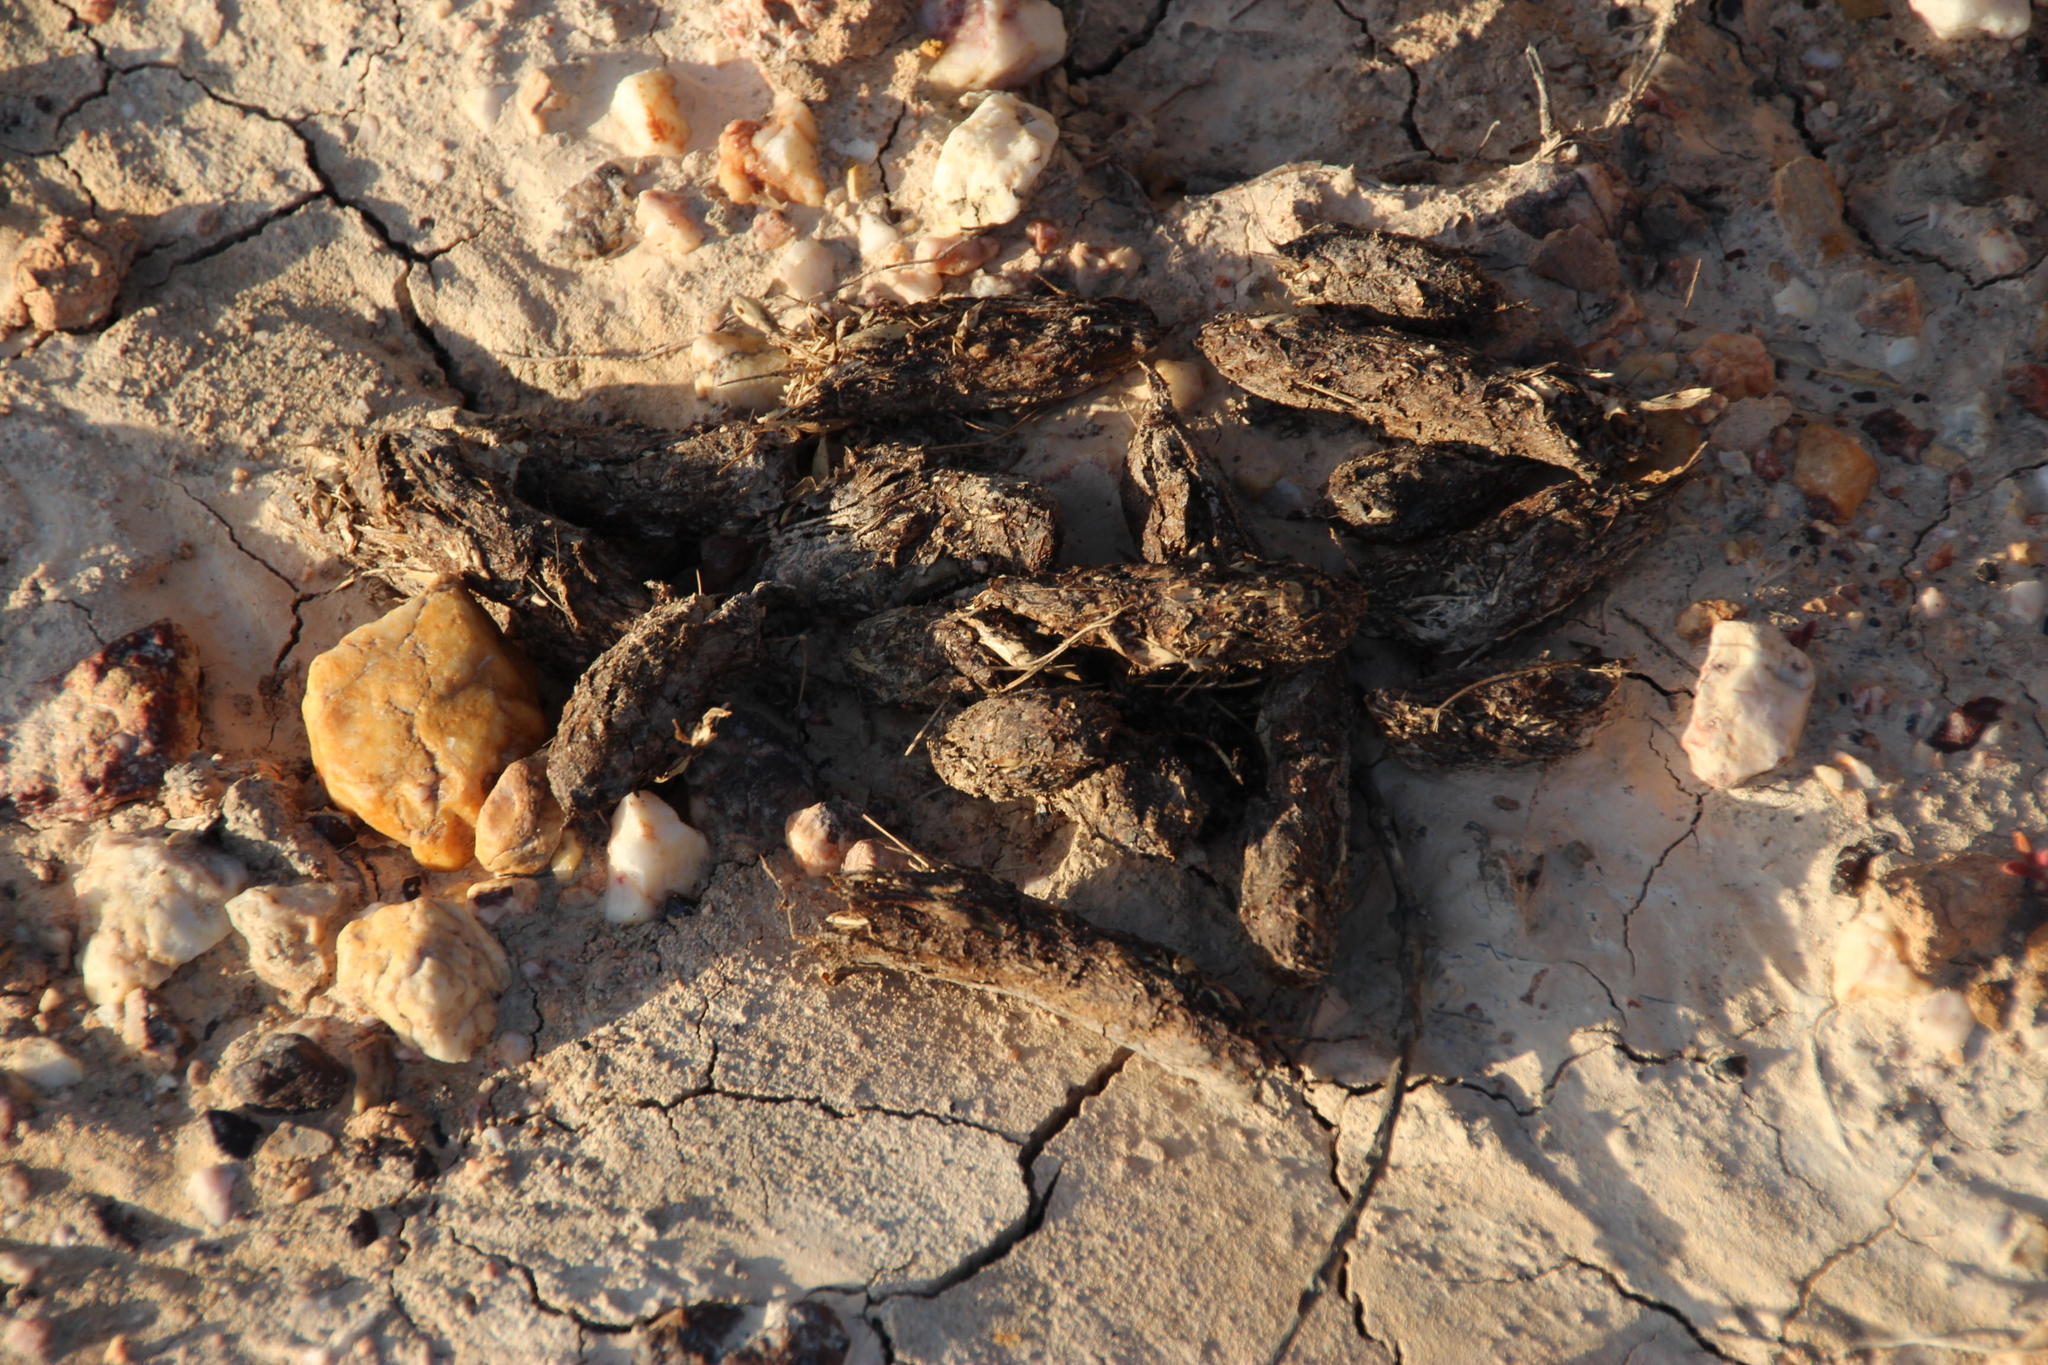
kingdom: Animalia
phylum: Chordata
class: Mammalia
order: Rodentia
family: Hystricidae
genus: Hystrix
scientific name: Hystrix africaeaustralis
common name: Cape porcupine
